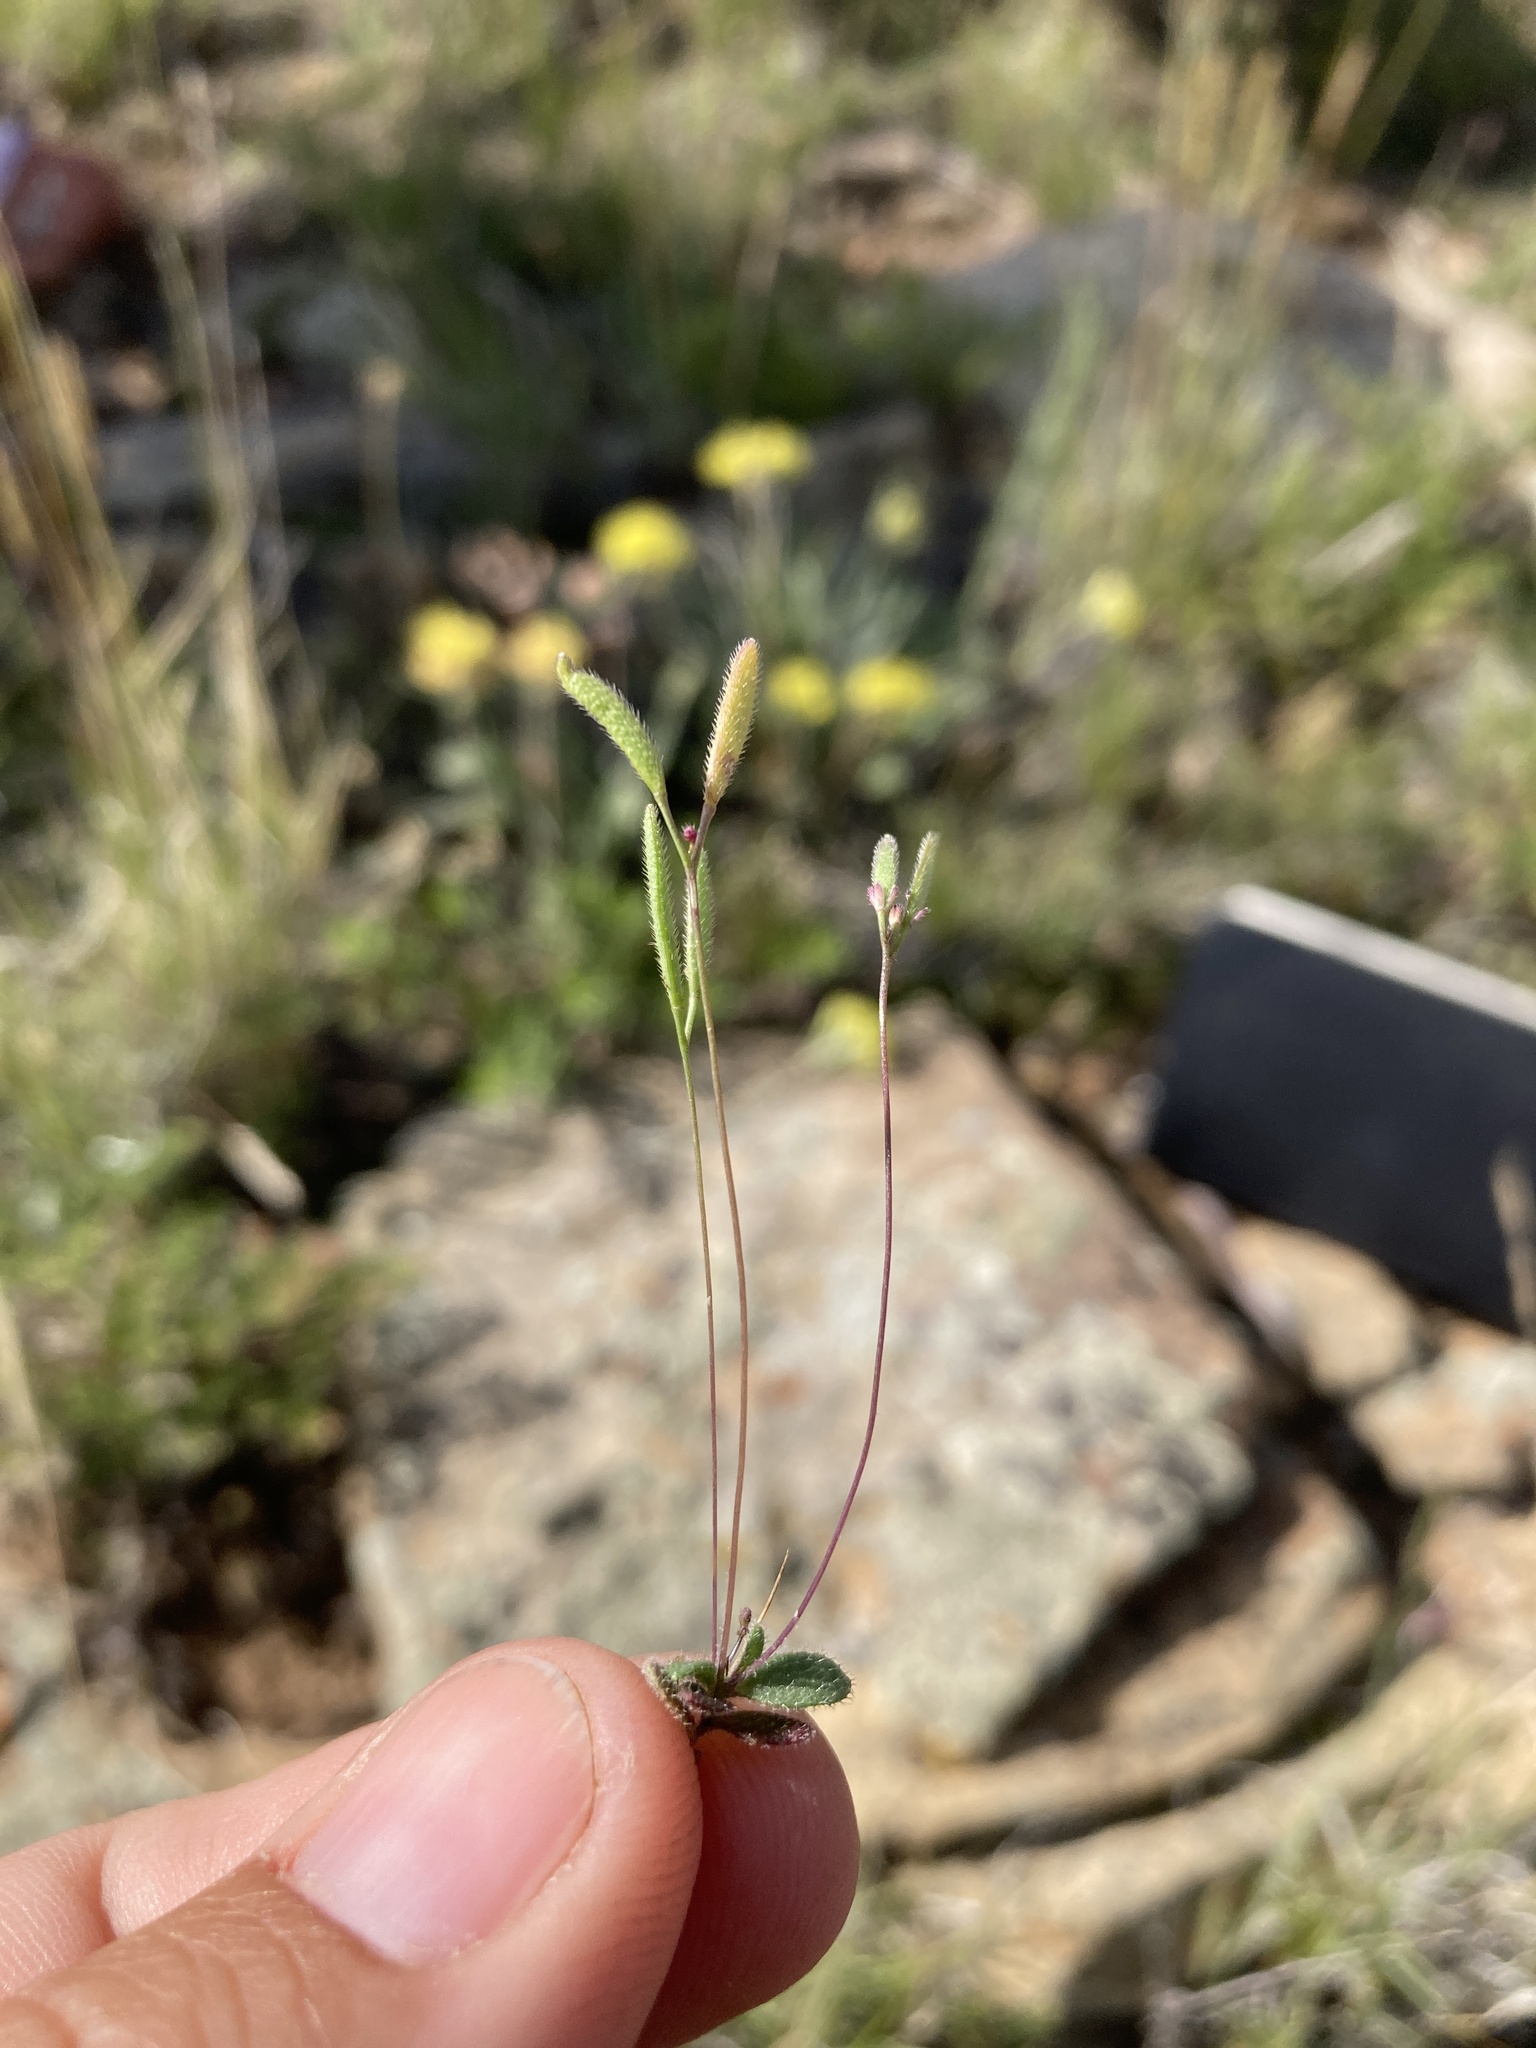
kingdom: Plantae
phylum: Tracheophyta
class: Magnoliopsida
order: Brassicales
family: Brassicaceae
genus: Tomostima
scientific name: Tomostima reptans
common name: Carolina draba
